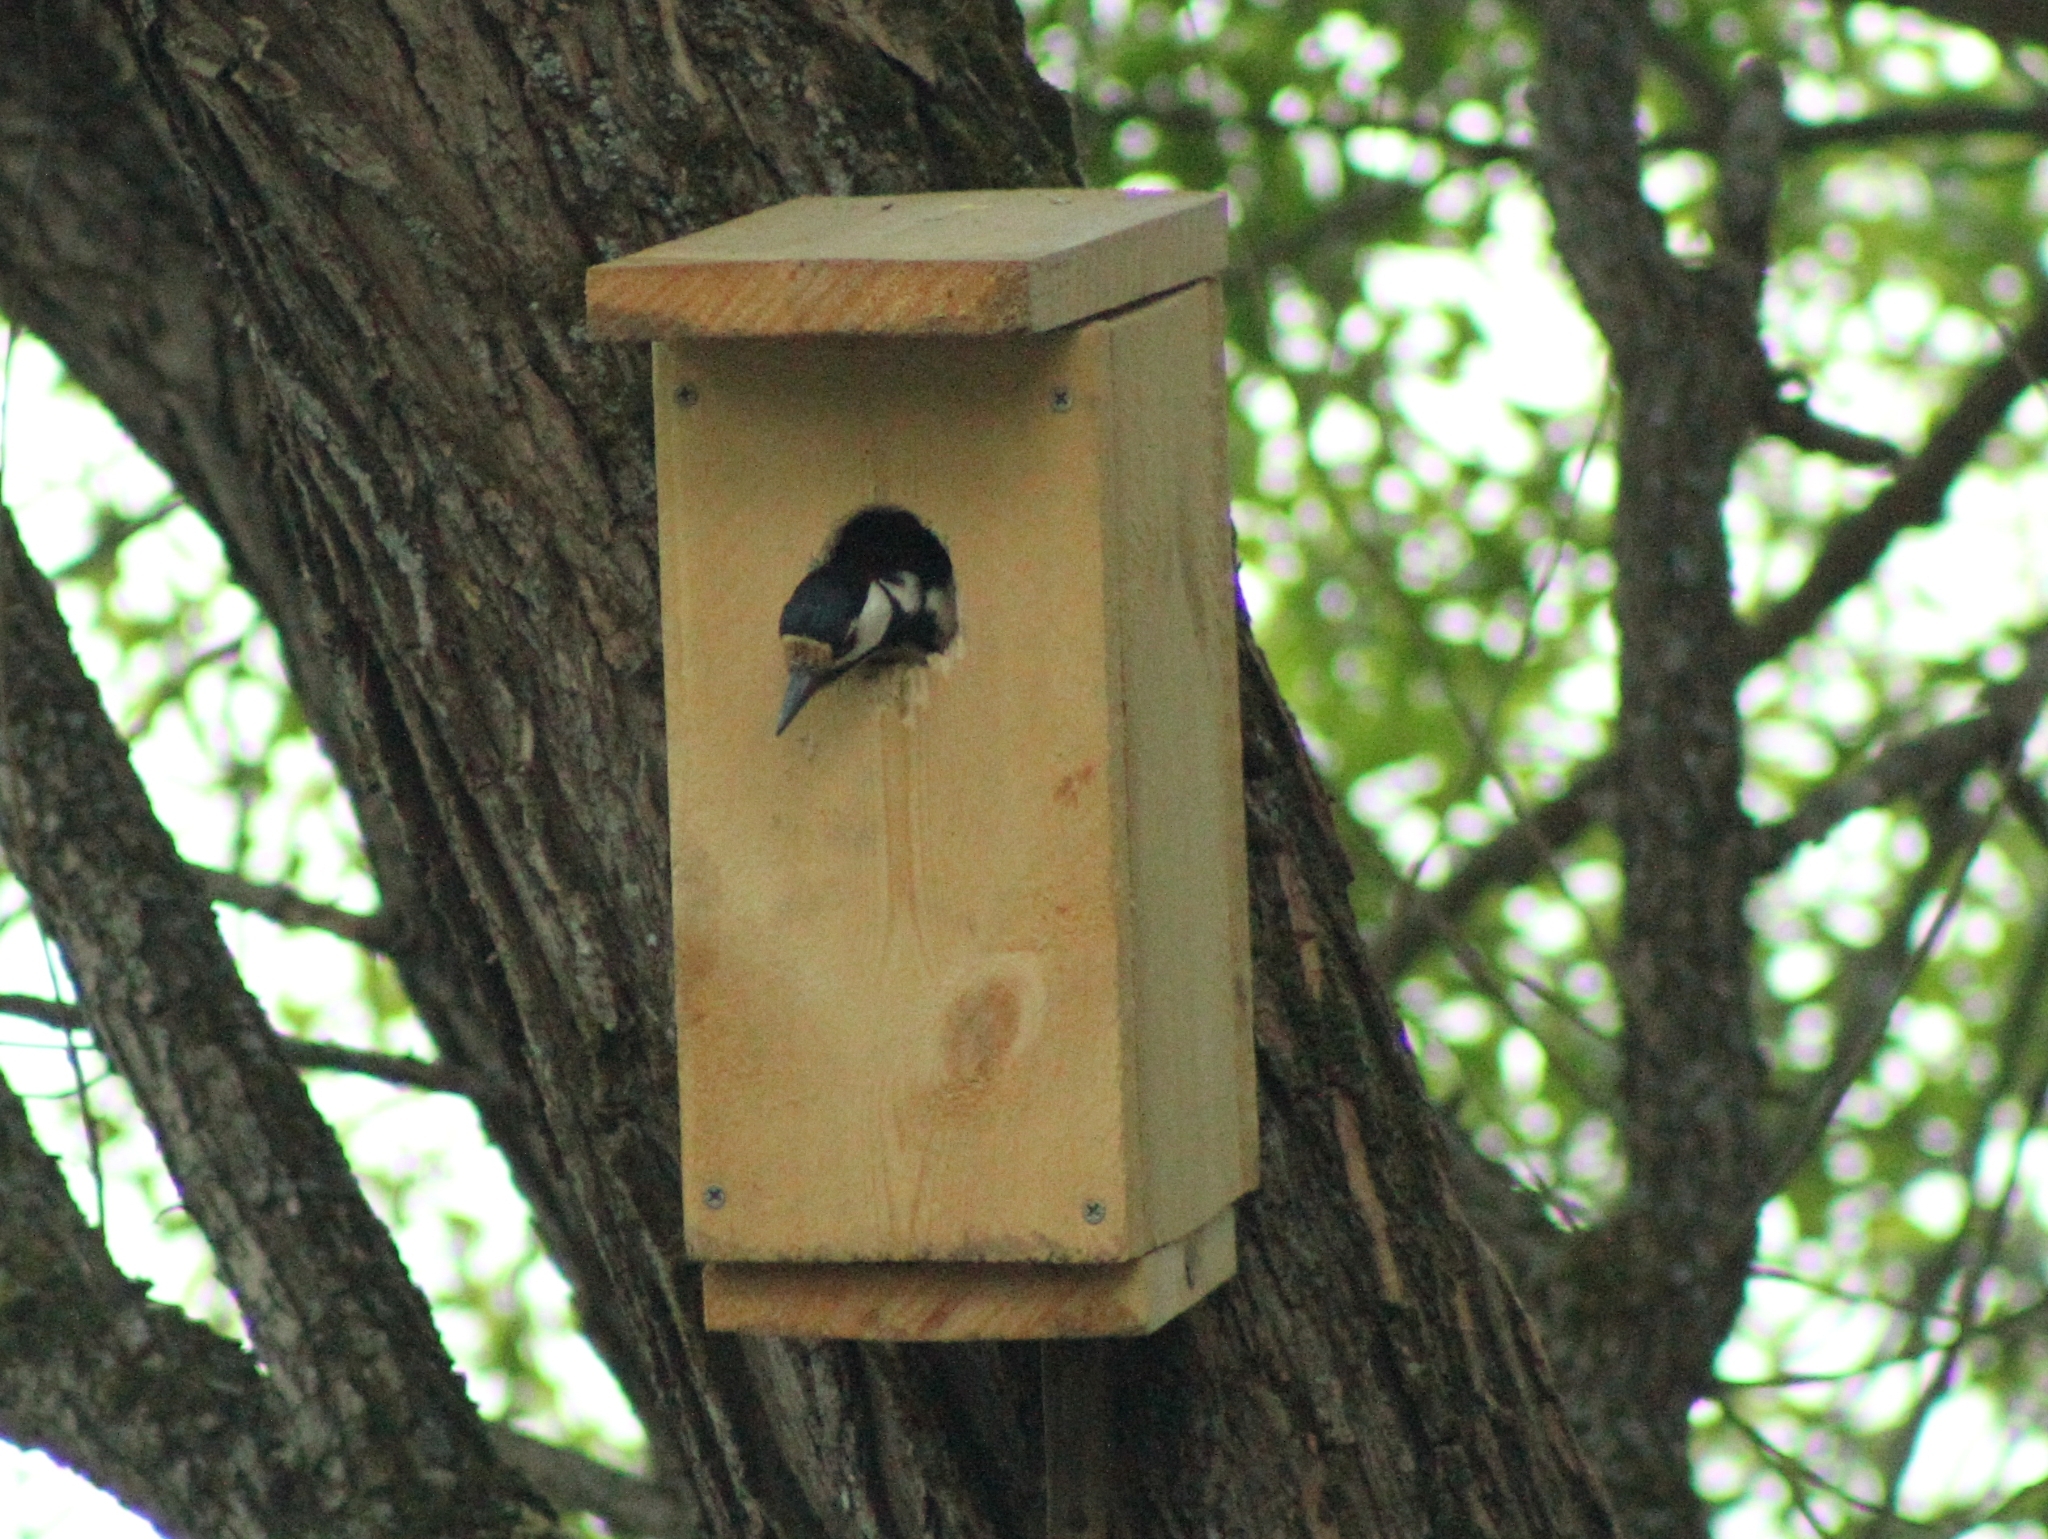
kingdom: Animalia
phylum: Chordata
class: Aves
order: Piciformes
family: Picidae
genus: Dendrocopos
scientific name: Dendrocopos major
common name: Great spotted woodpecker
